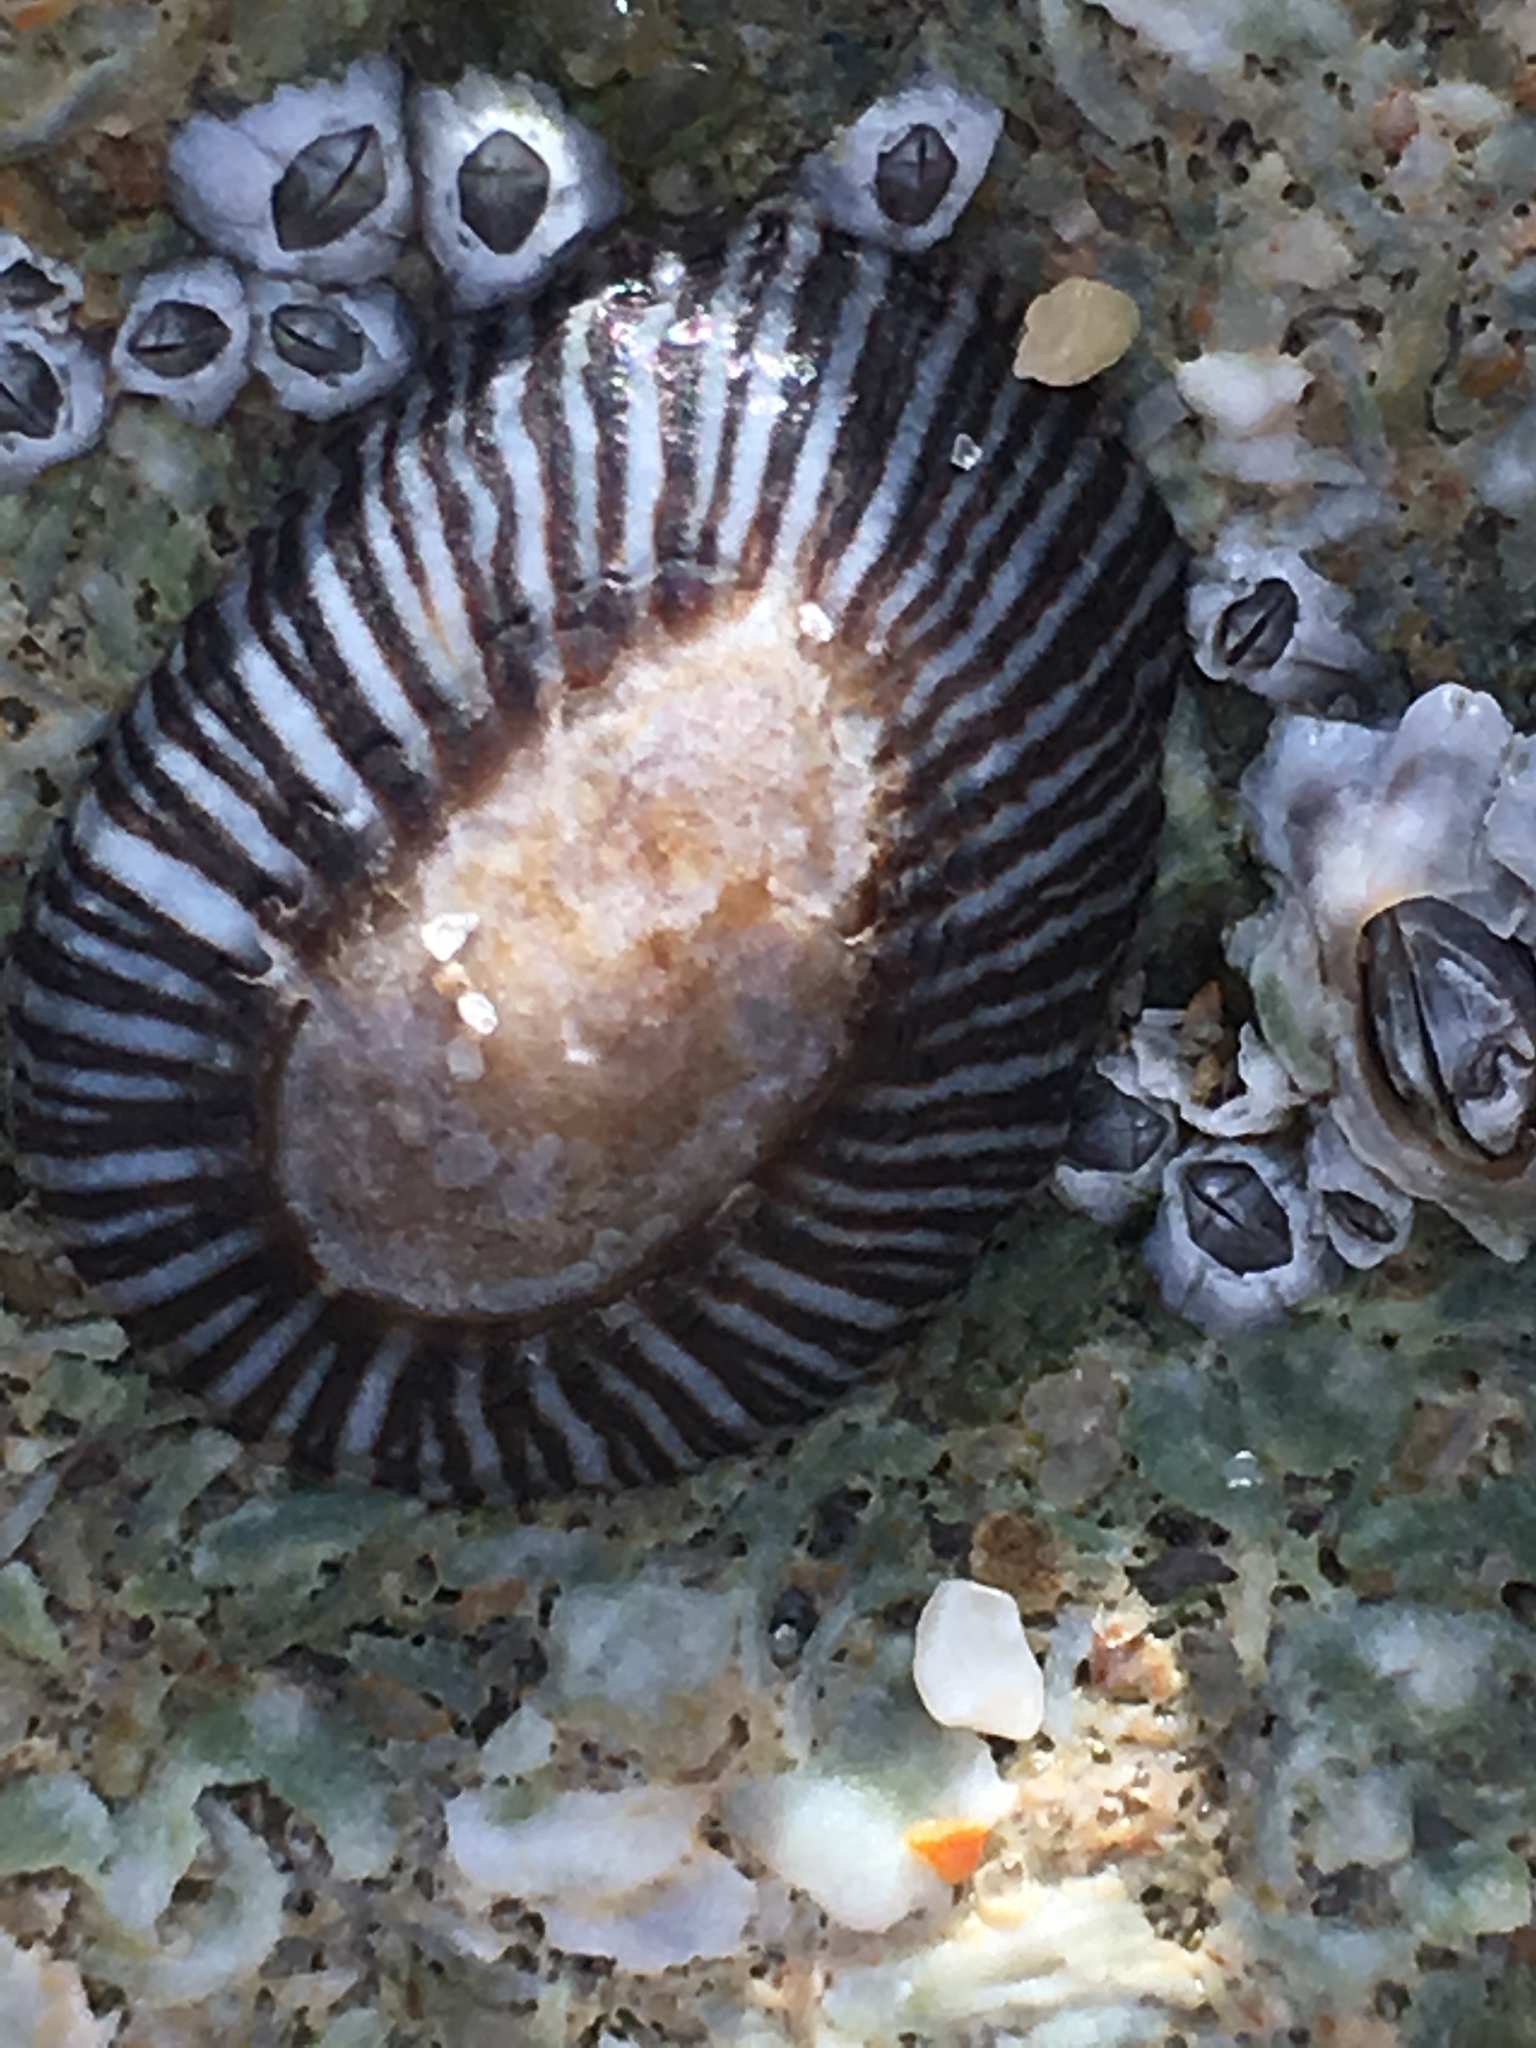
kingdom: Animalia
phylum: Mollusca
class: Gastropoda
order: Siphonariida
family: Siphonariidae
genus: Siphonaria
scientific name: Siphonaria naufragum
